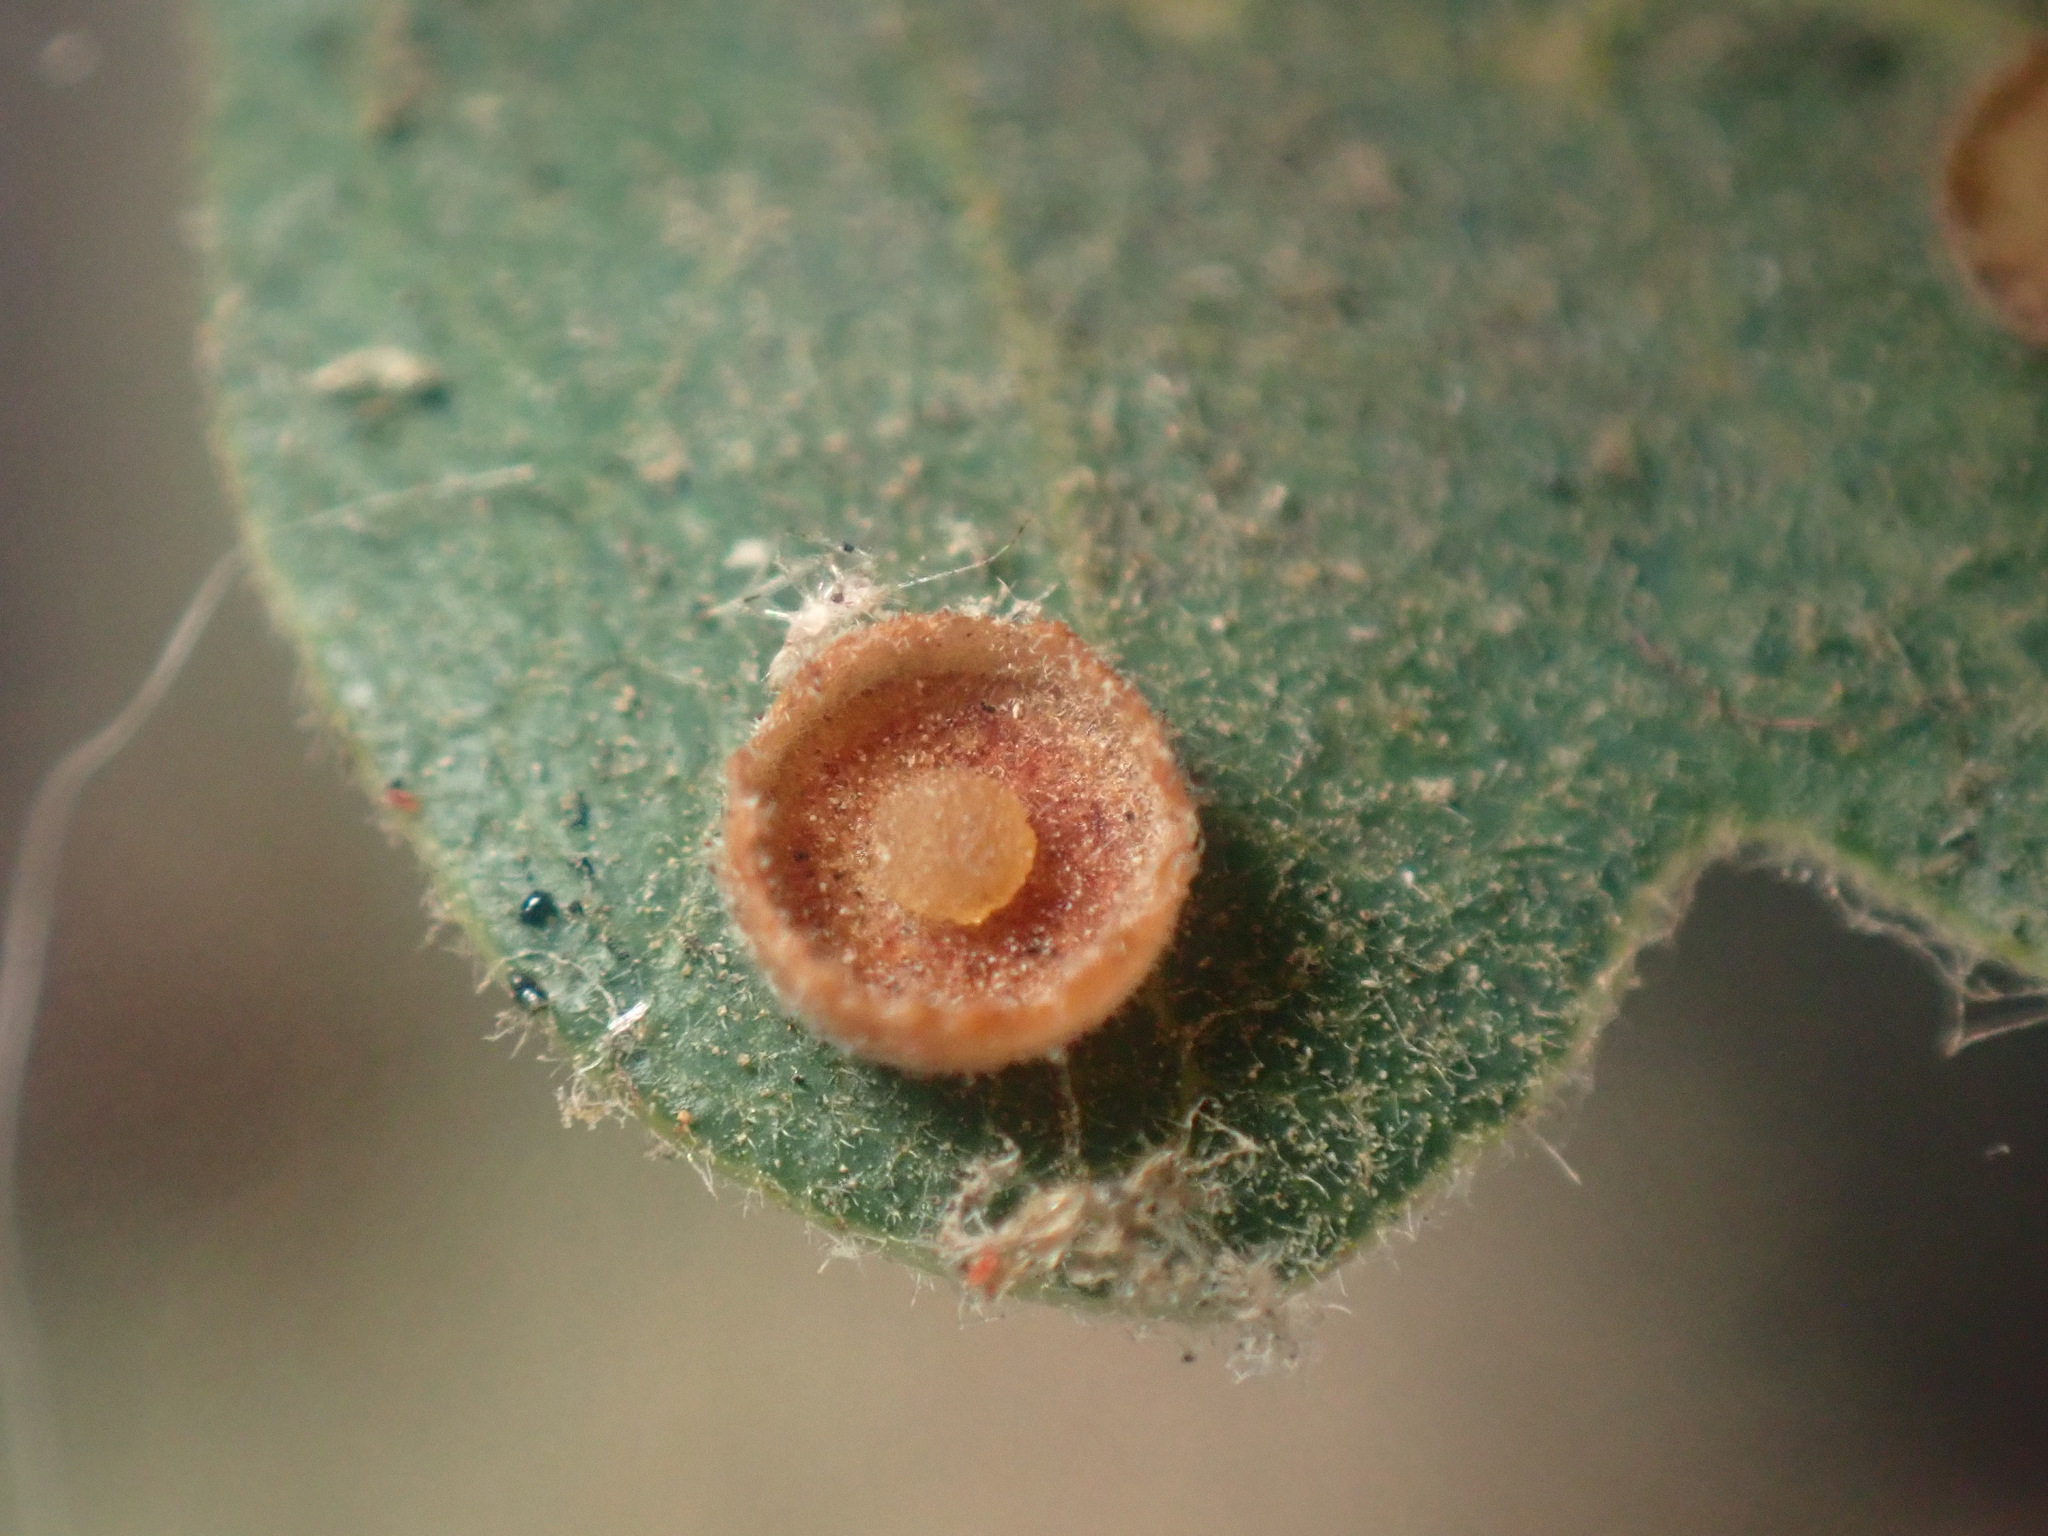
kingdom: Animalia
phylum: Arthropoda
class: Insecta
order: Hymenoptera
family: Cynipidae
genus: Andricus
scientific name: Andricus
